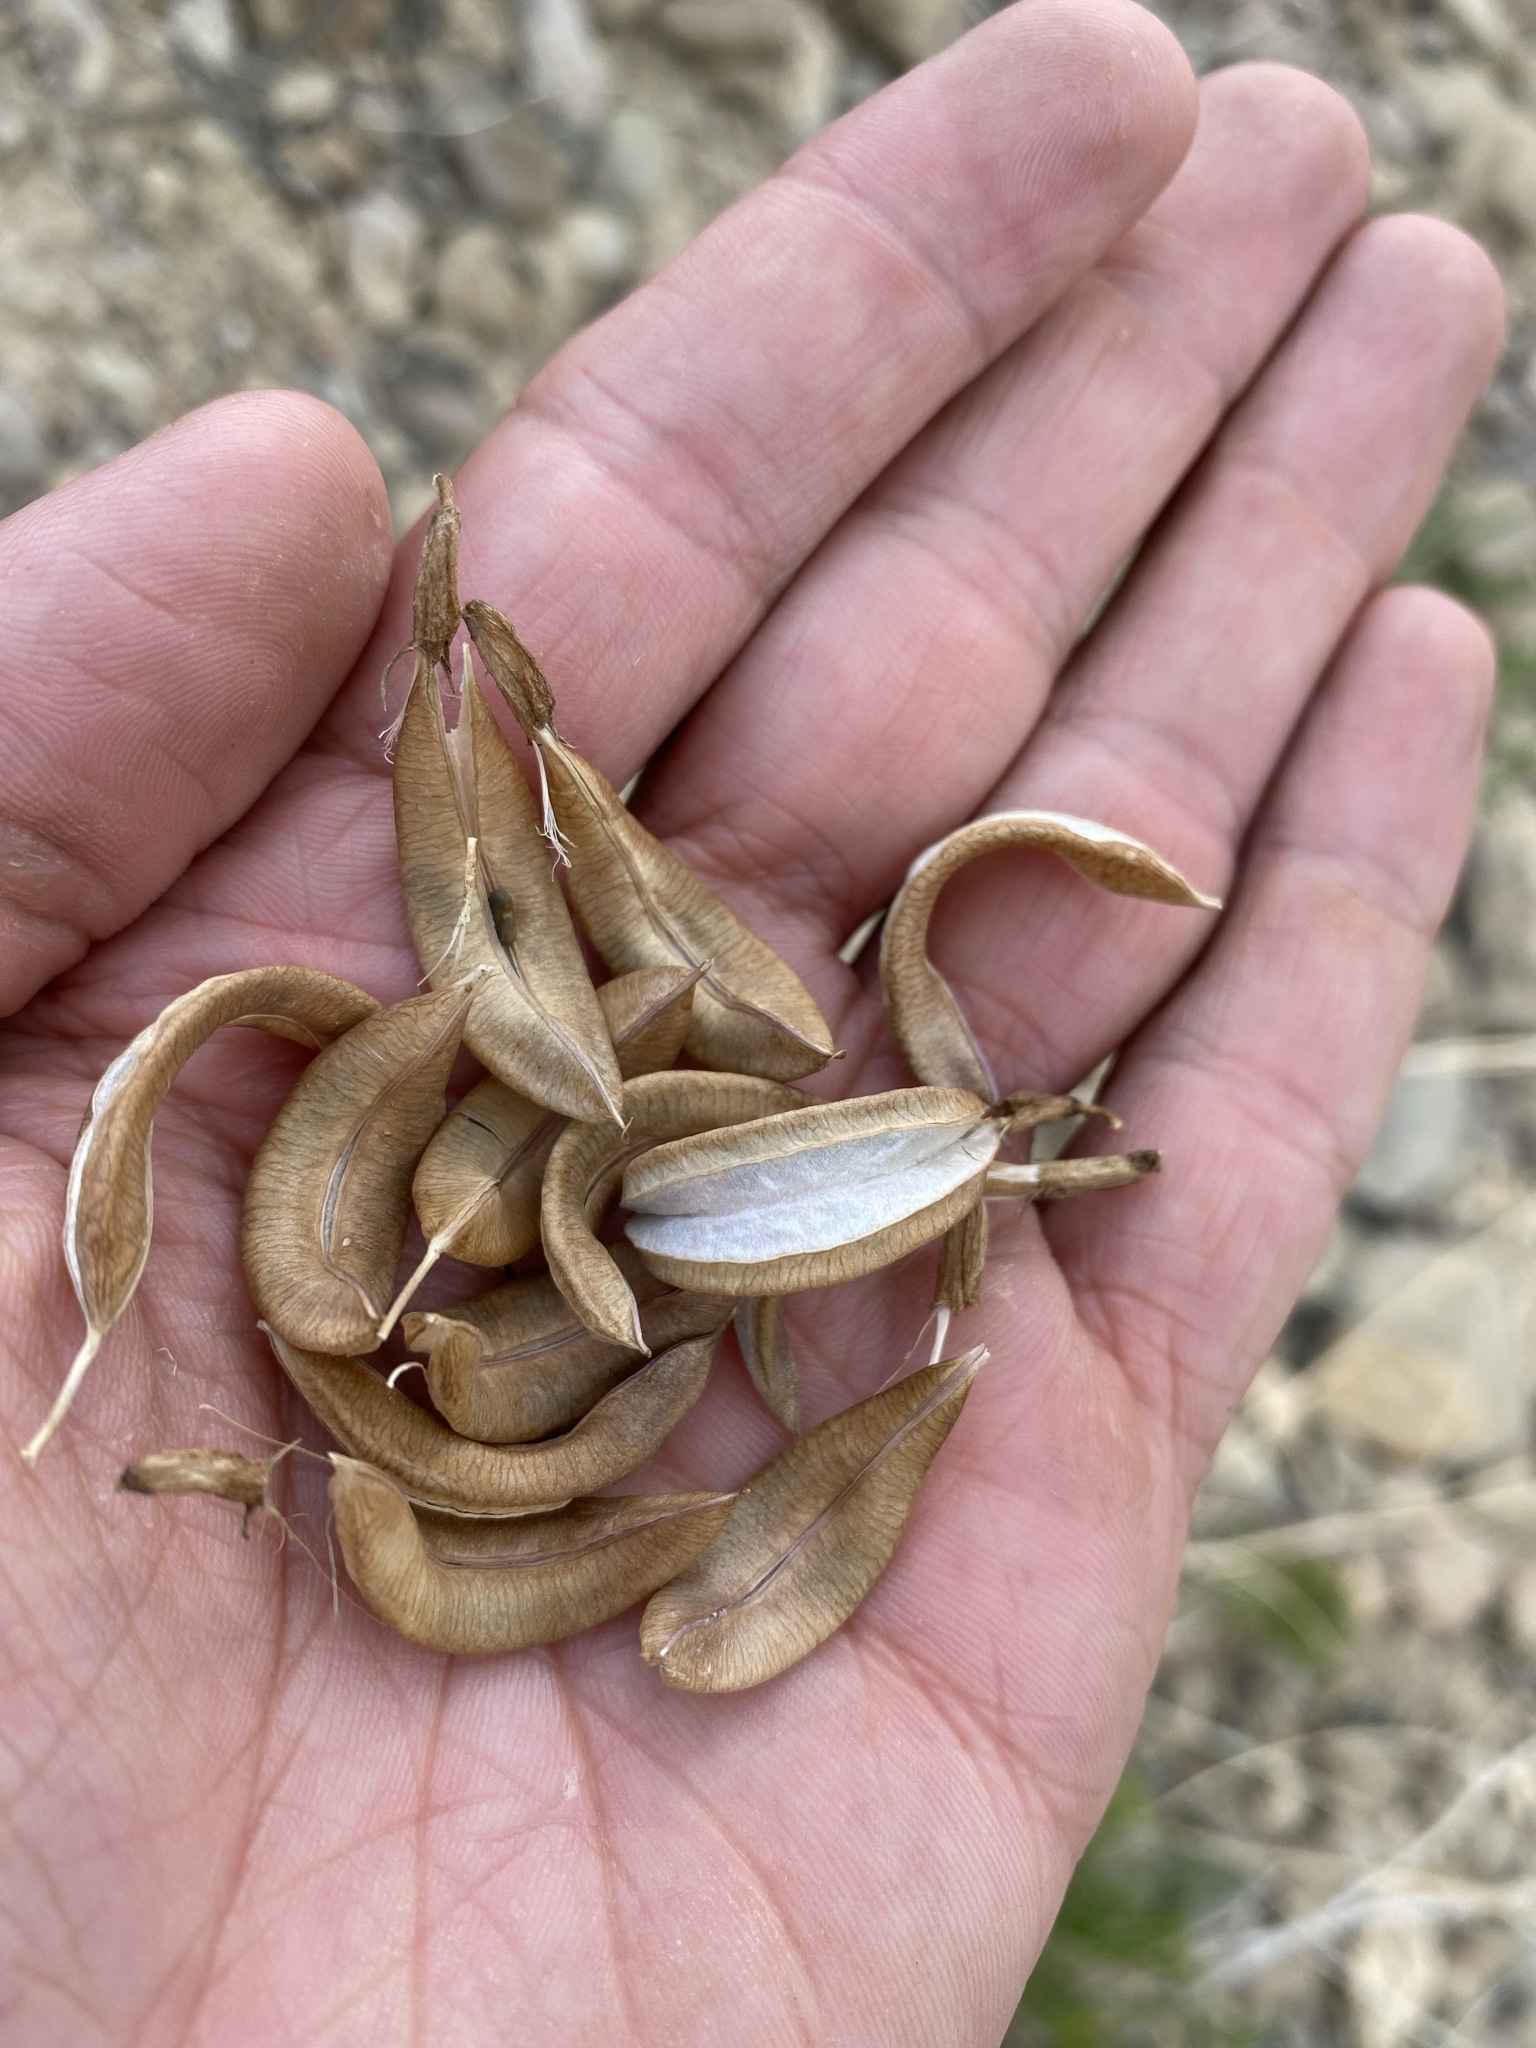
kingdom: Plantae
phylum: Tracheophyta
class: Magnoliopsida
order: Fabales
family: Fabaceae
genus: Astragalus
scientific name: Astragalus scopulorum
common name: Rocky mountain milk-vetch
